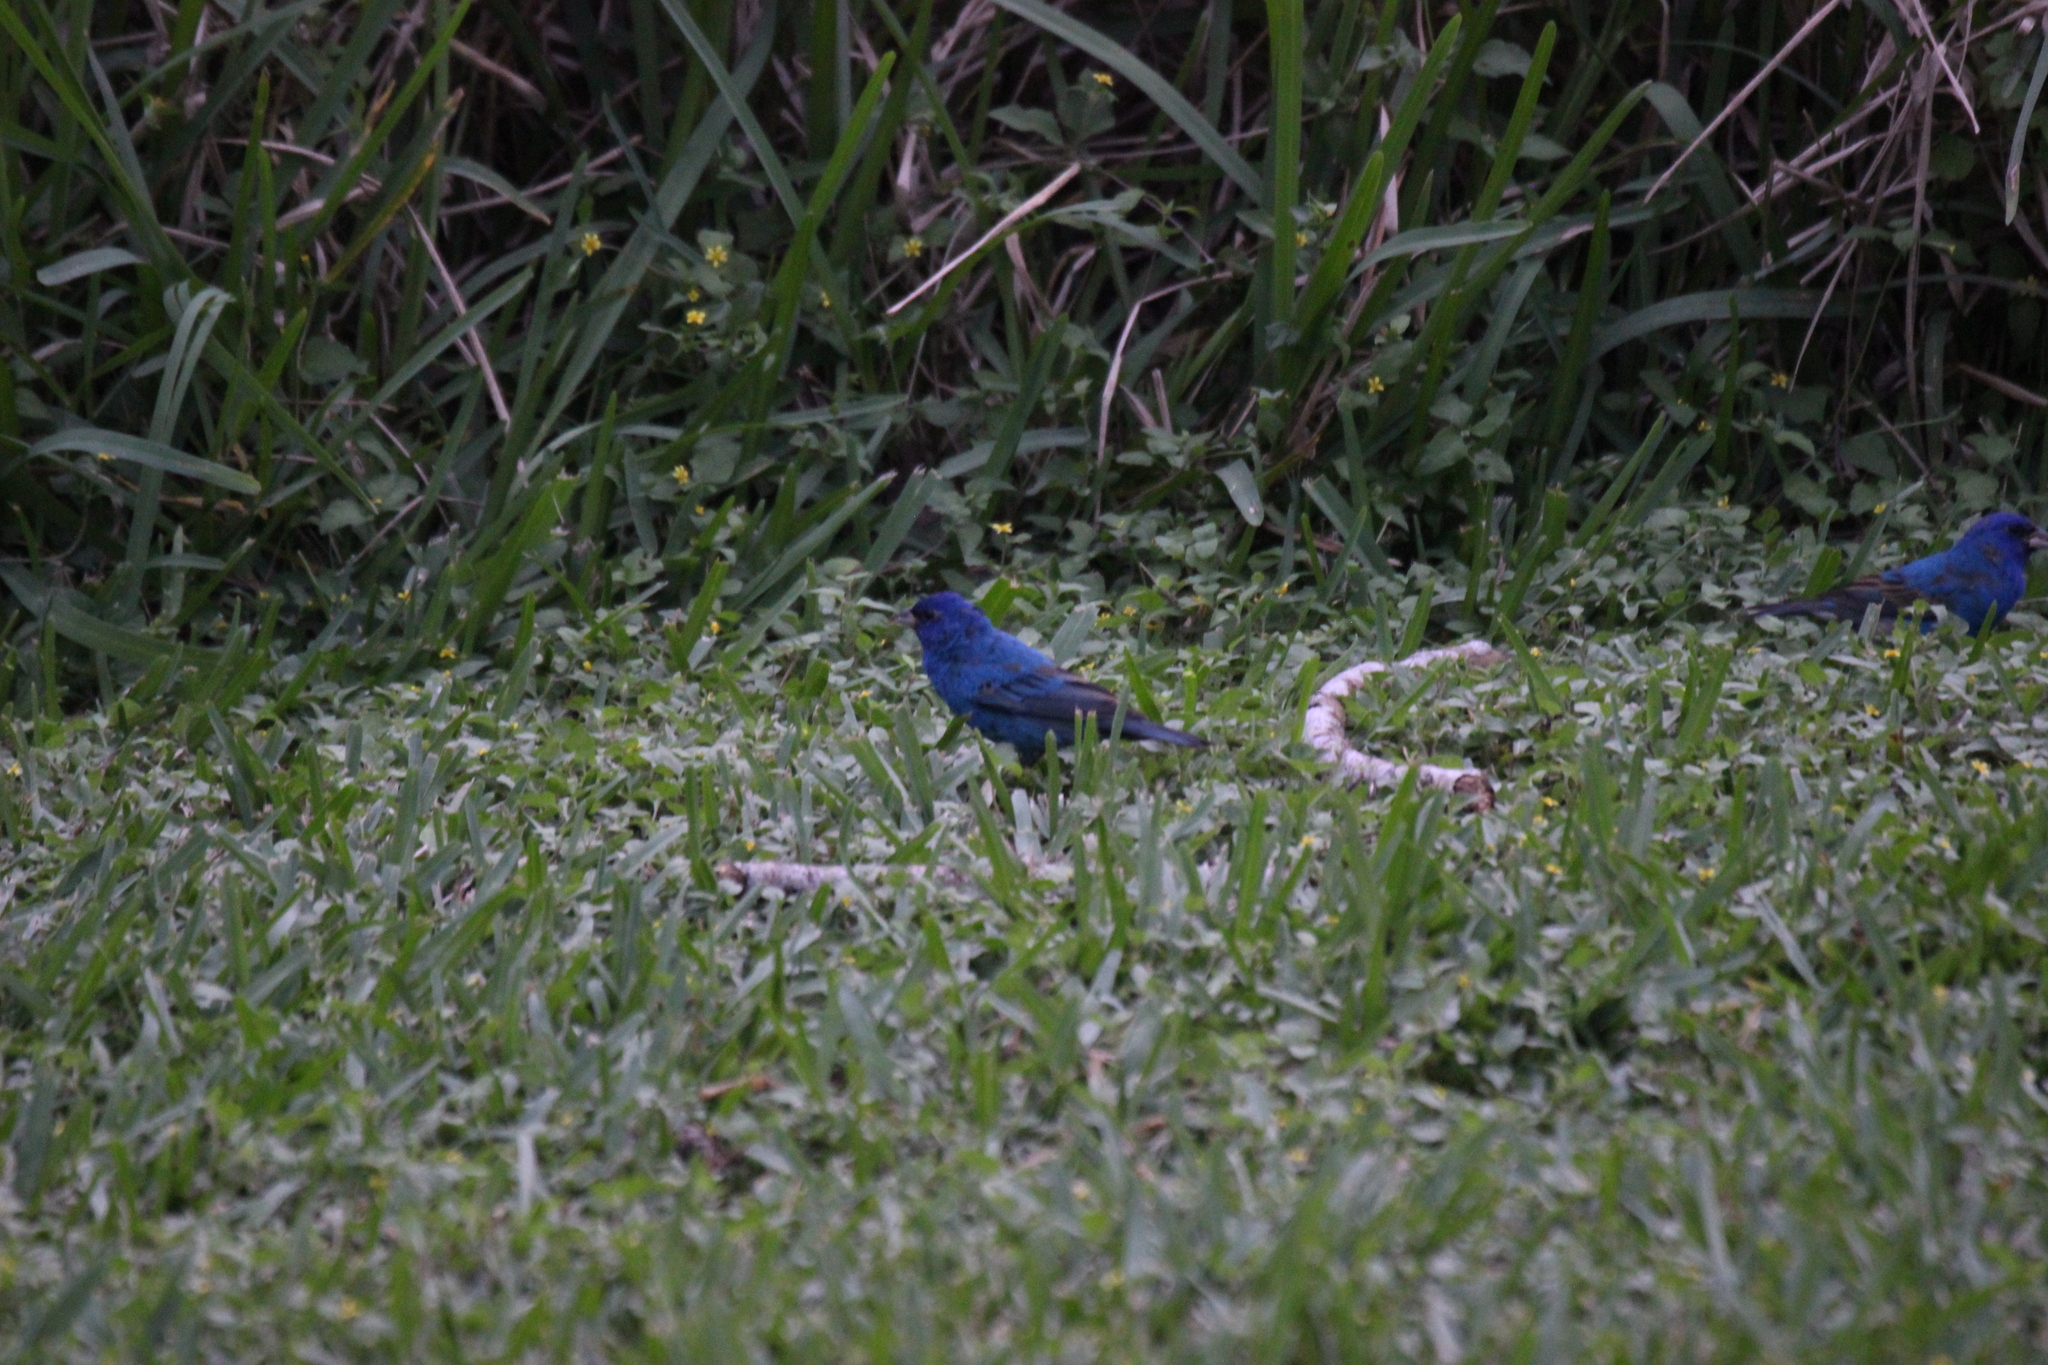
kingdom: Animalia
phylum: Chordata
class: Aves
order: Passeriformes
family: Cardinalidae
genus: Passerina
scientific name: Passerina cyanea
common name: Indigo bunting
